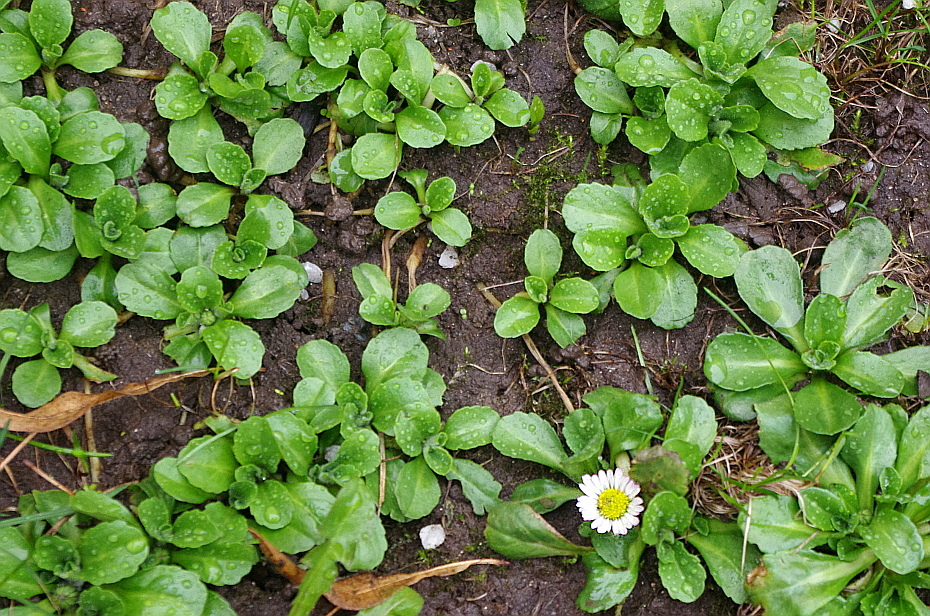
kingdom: Plantae
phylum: Tracheophyta
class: Magnoliopsida
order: Asterales
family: Asteraceae
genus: Bellis
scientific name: Bellis perennis
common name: Lawndaisy
